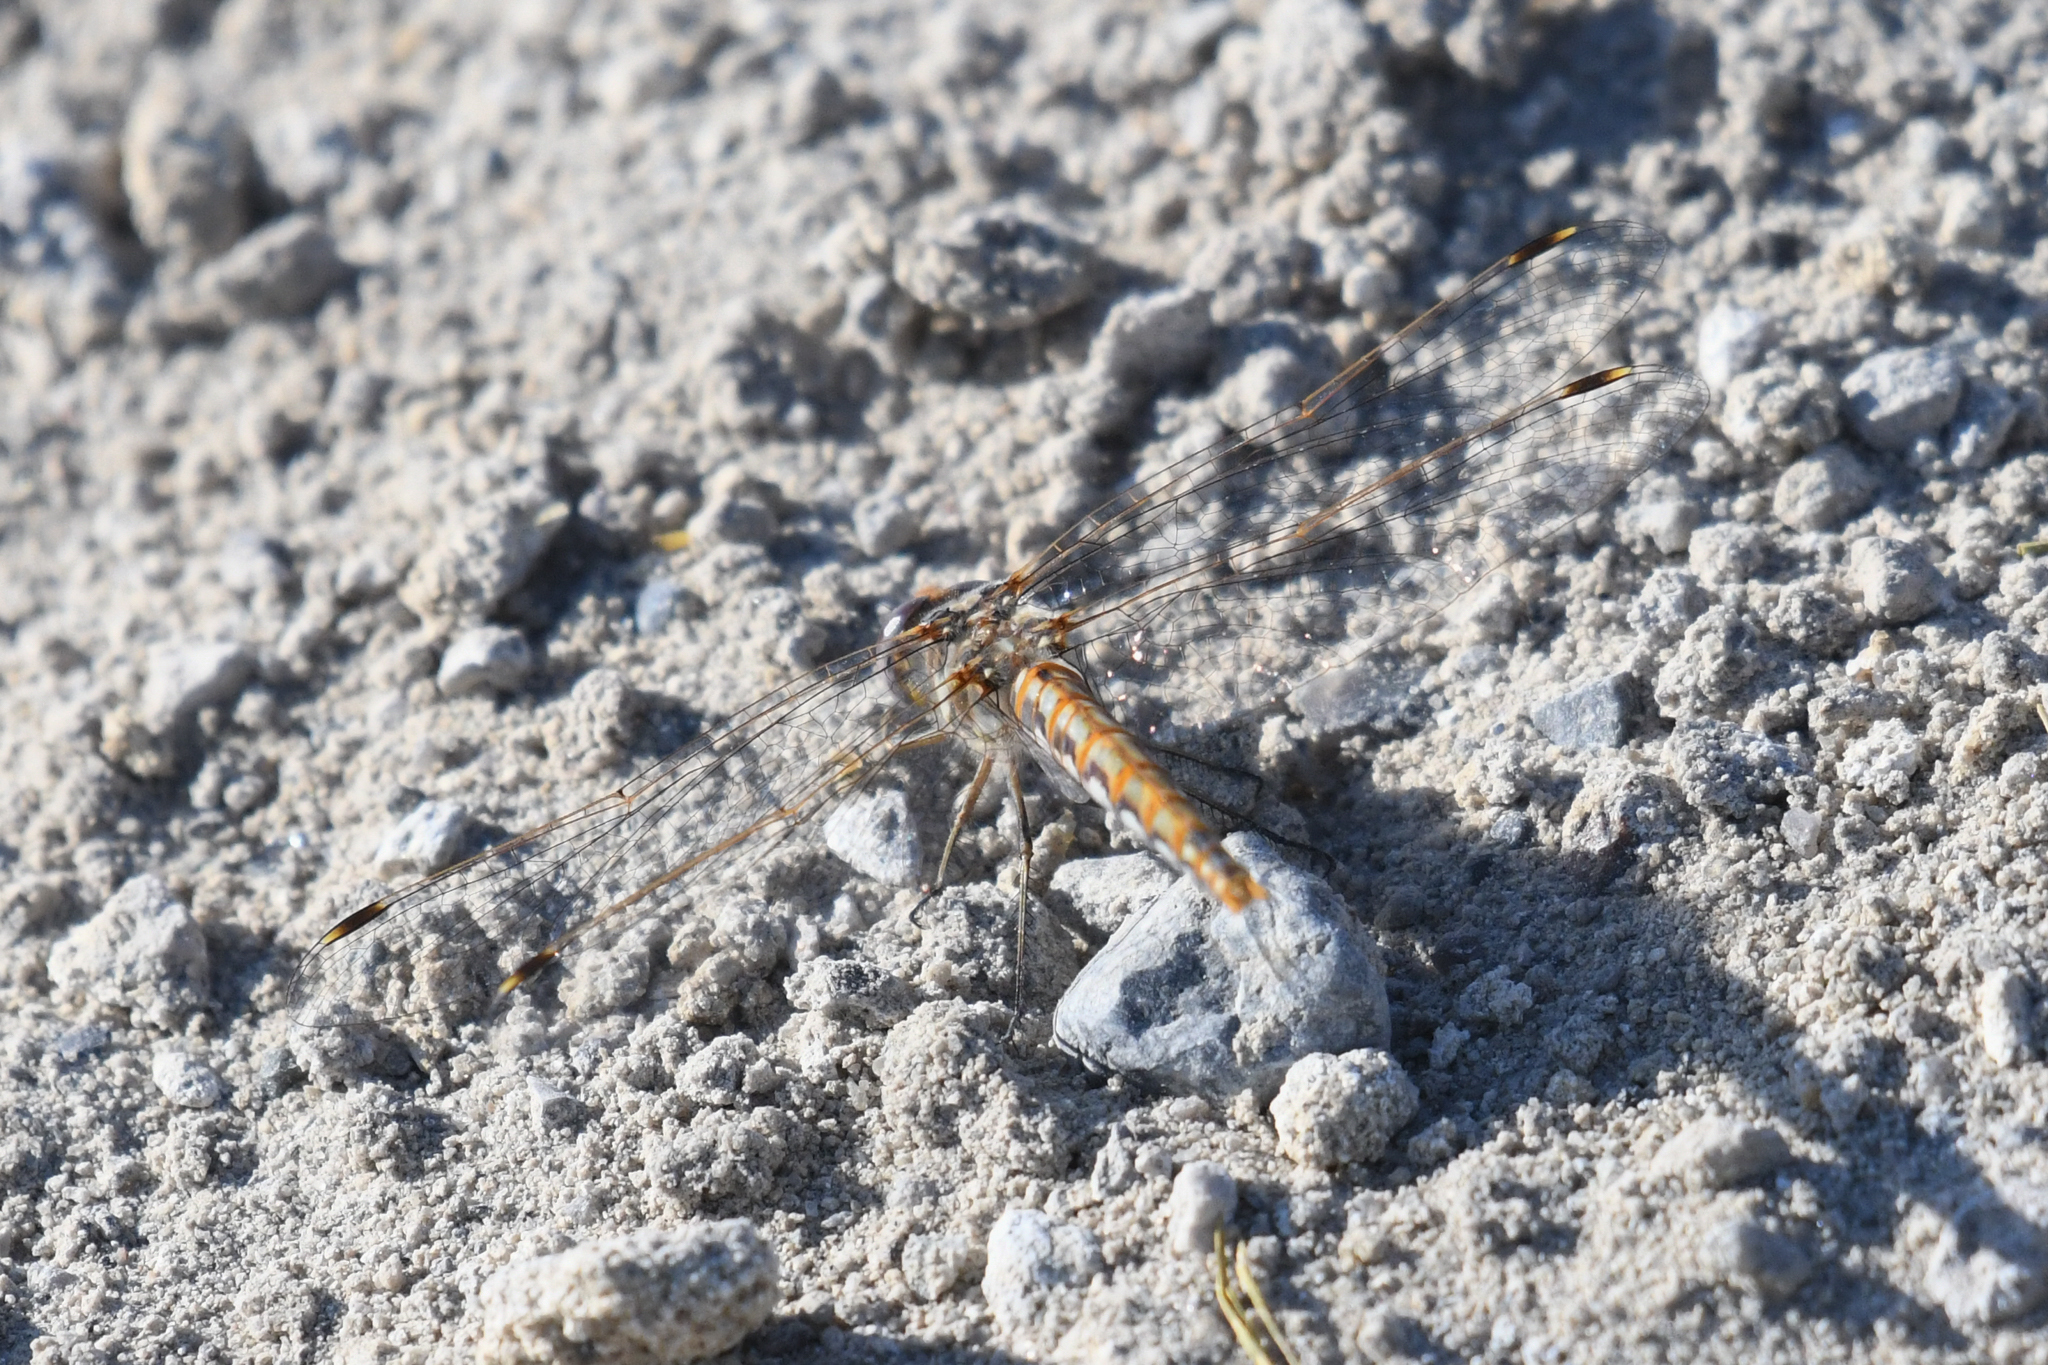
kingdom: Animalia
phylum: Arthropoda
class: Insecta
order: Odonata
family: Libellulidae
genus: Sympetrum
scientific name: Sympetrum corruptum
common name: Variegated meadowhawk
